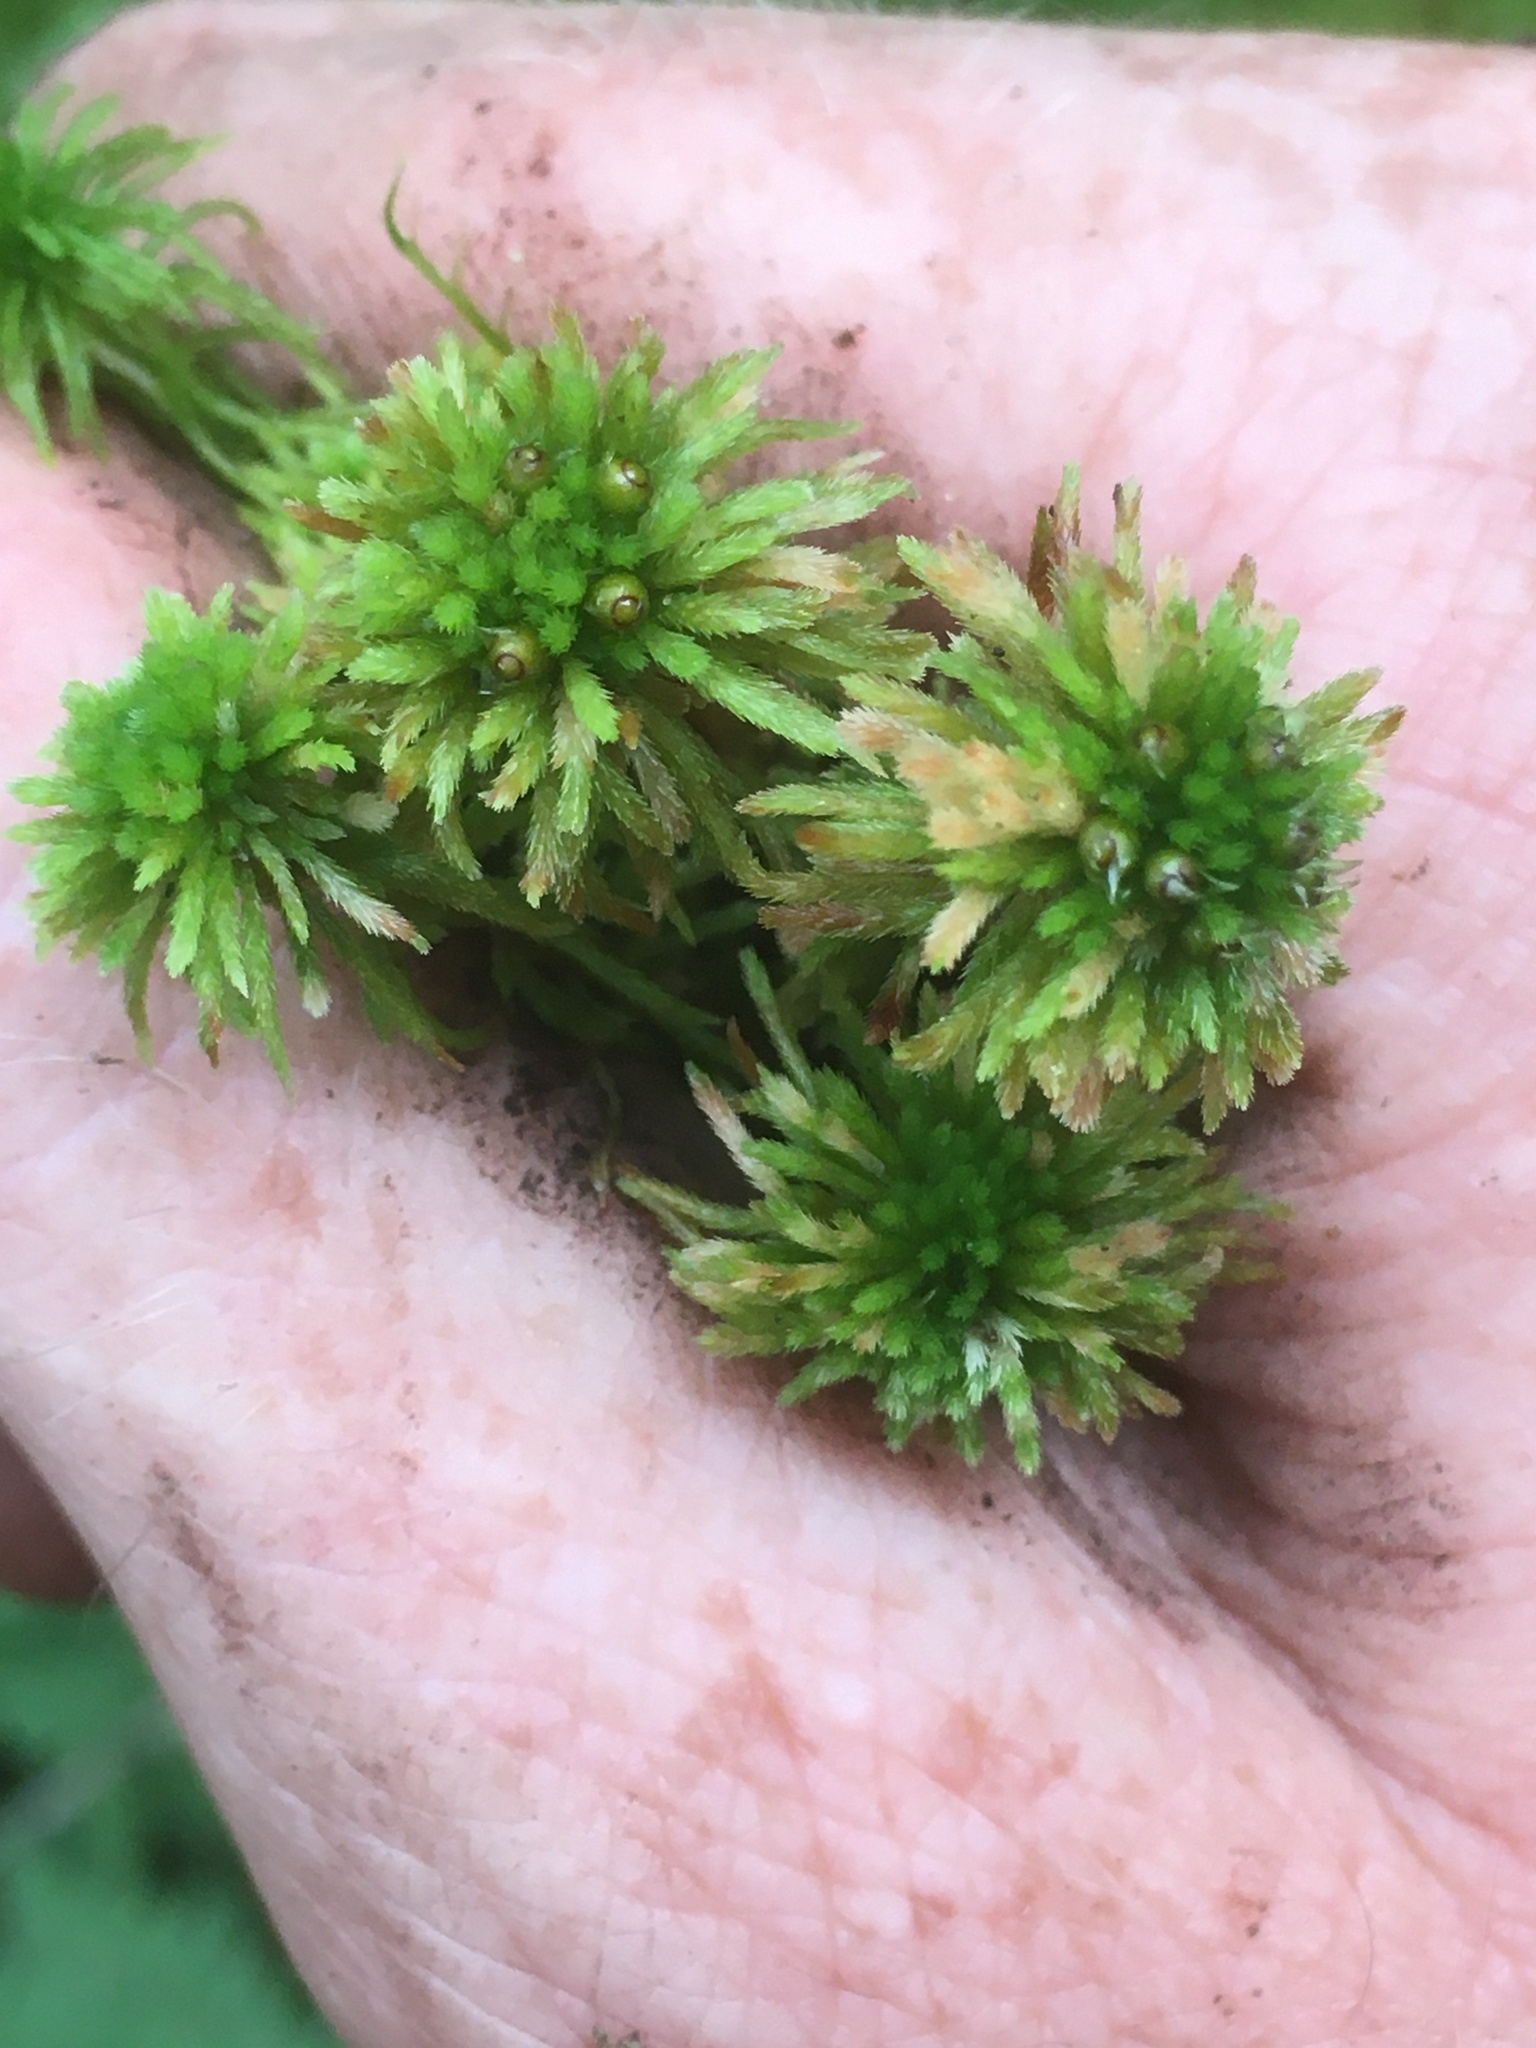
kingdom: Plantae
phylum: Bryophyta
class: Sphagnopsida
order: Sphagnales
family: Sphagnaceae
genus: Sphagnum
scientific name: Sphagnum wulfianum
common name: Wulf's peat moss
